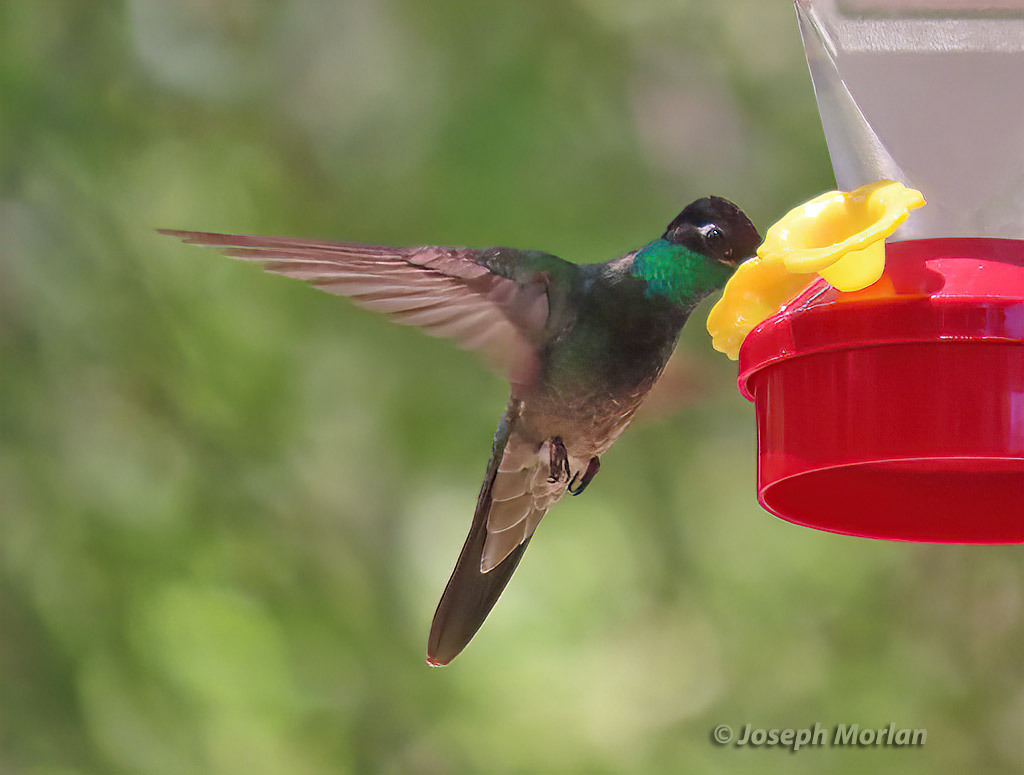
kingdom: Animalia
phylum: Chordata
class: Aves
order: Apodiformes
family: Trochilidae
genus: Eugenes
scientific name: Eugenes fulgens
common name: Magnificent hummingbird
